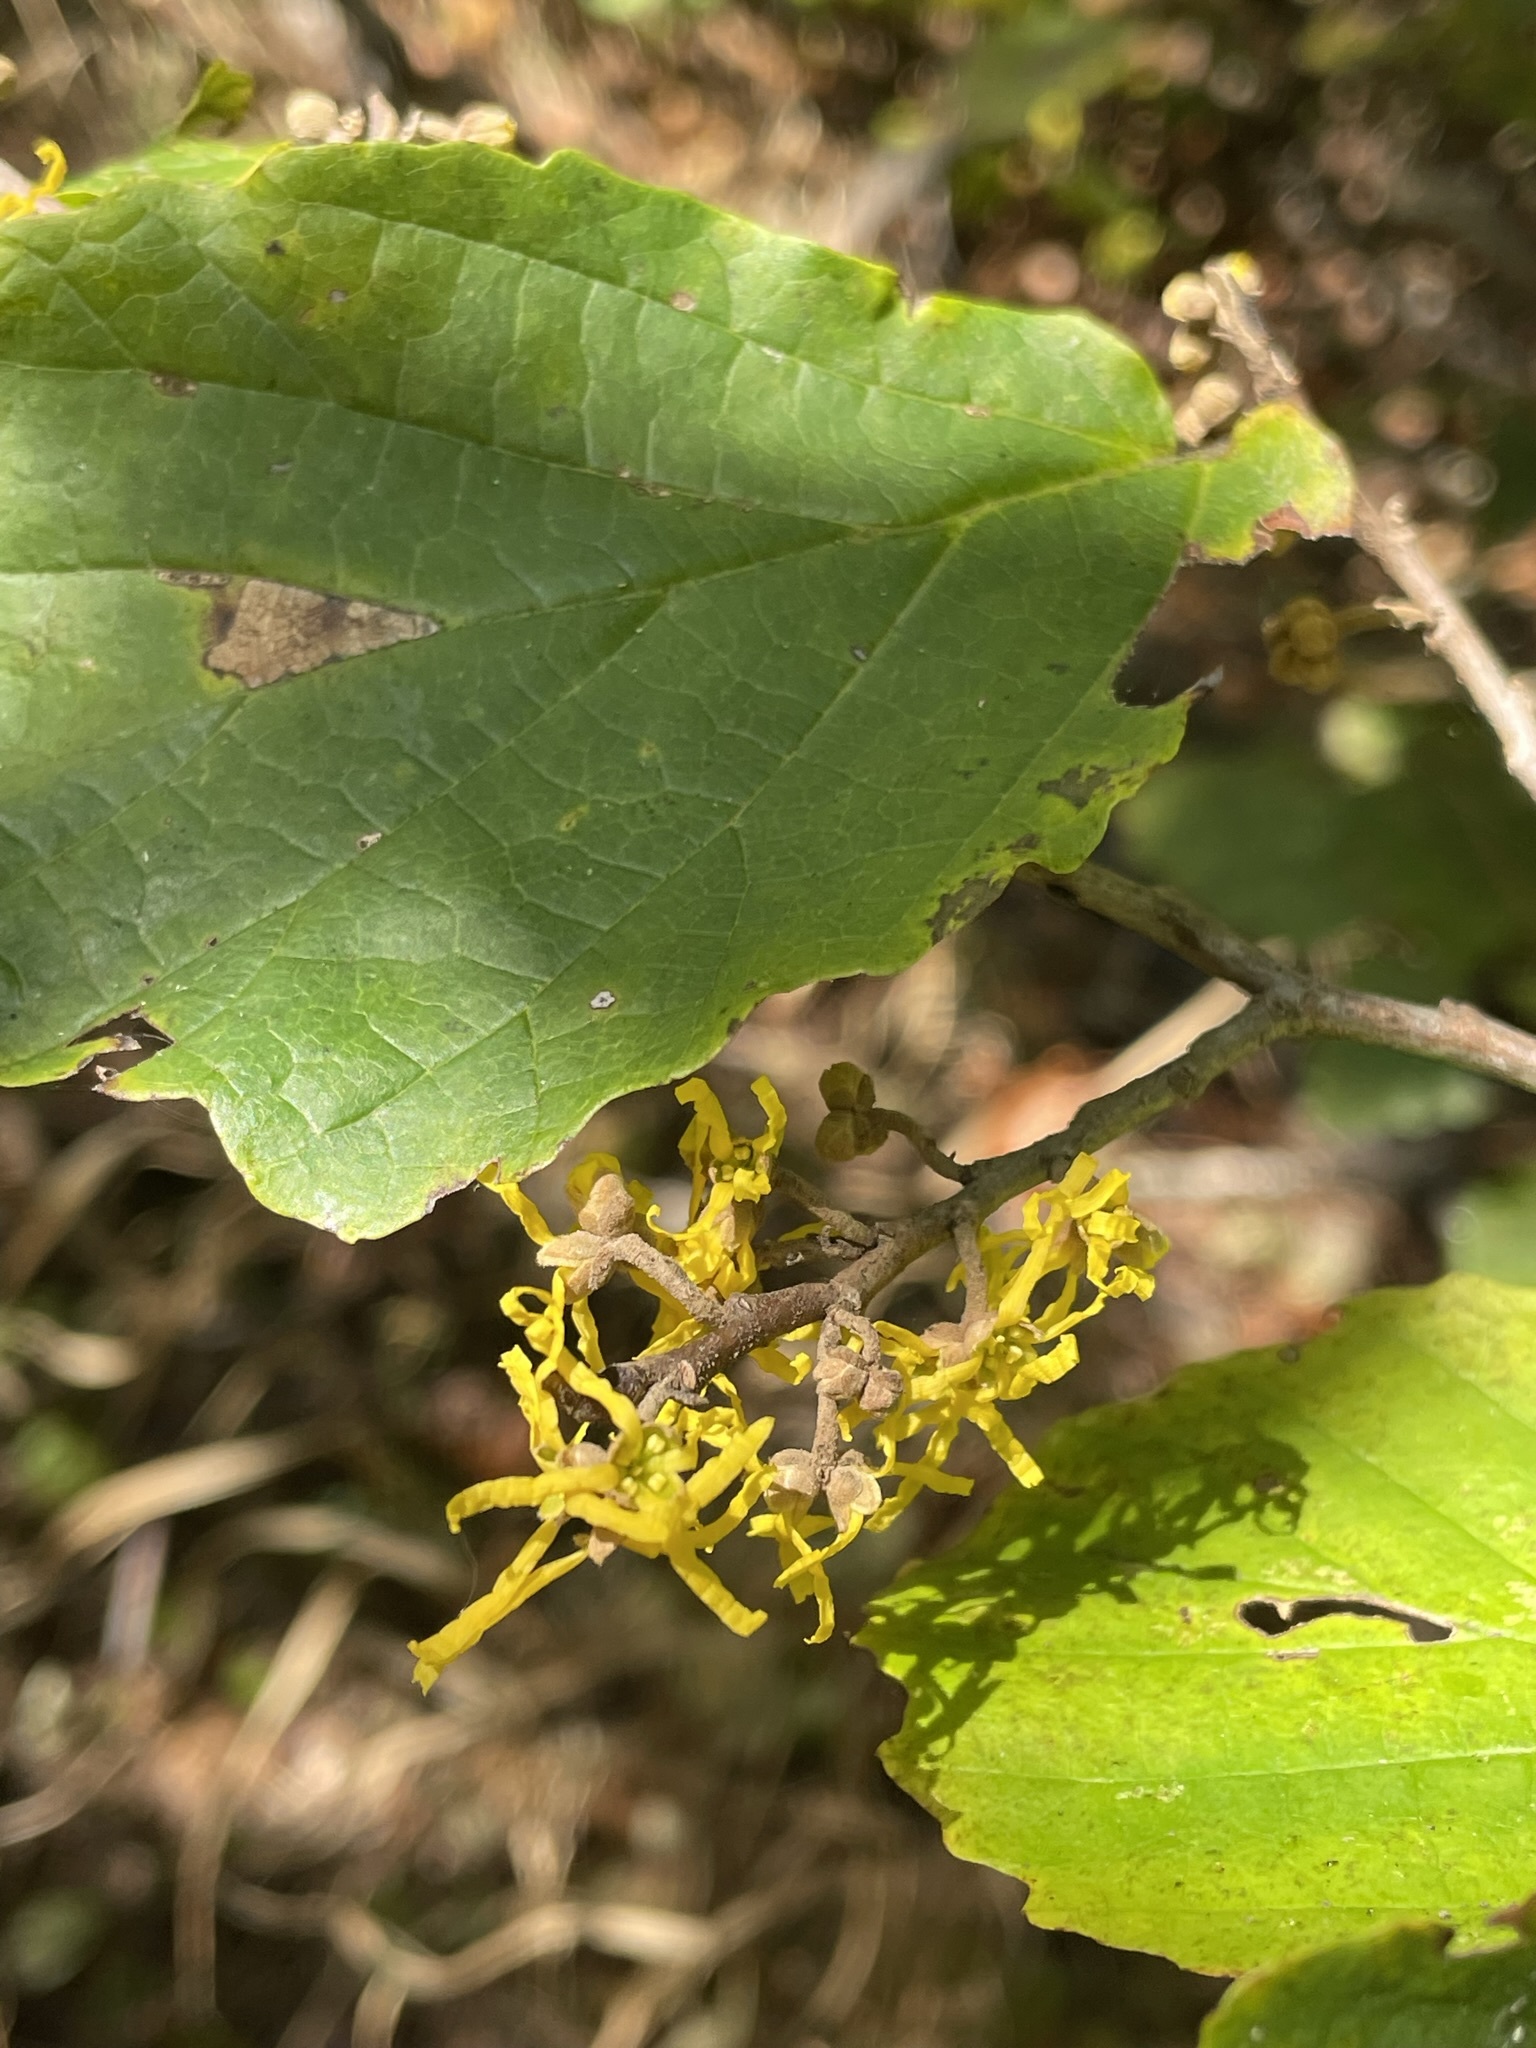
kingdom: Plantae
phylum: Tracheophyta
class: Magnoliopsida
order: Saxifragales
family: Hamamelidaceae
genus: Hamamelis
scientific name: Hamamelis virginiana
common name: Witch-hazel
